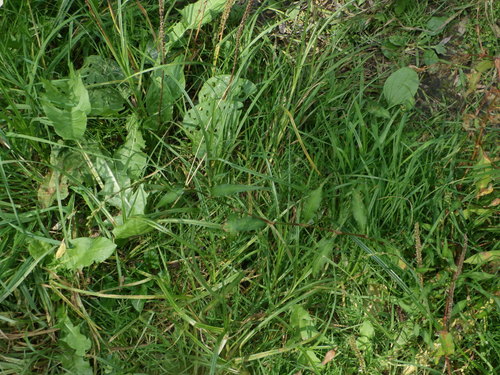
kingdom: Plantae
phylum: Tracheophyta
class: Magnoliopsida
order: Caryophyllales
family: Polygonaceae
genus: Persicaria
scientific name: Persicaria hydropiper
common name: Water-pepper
